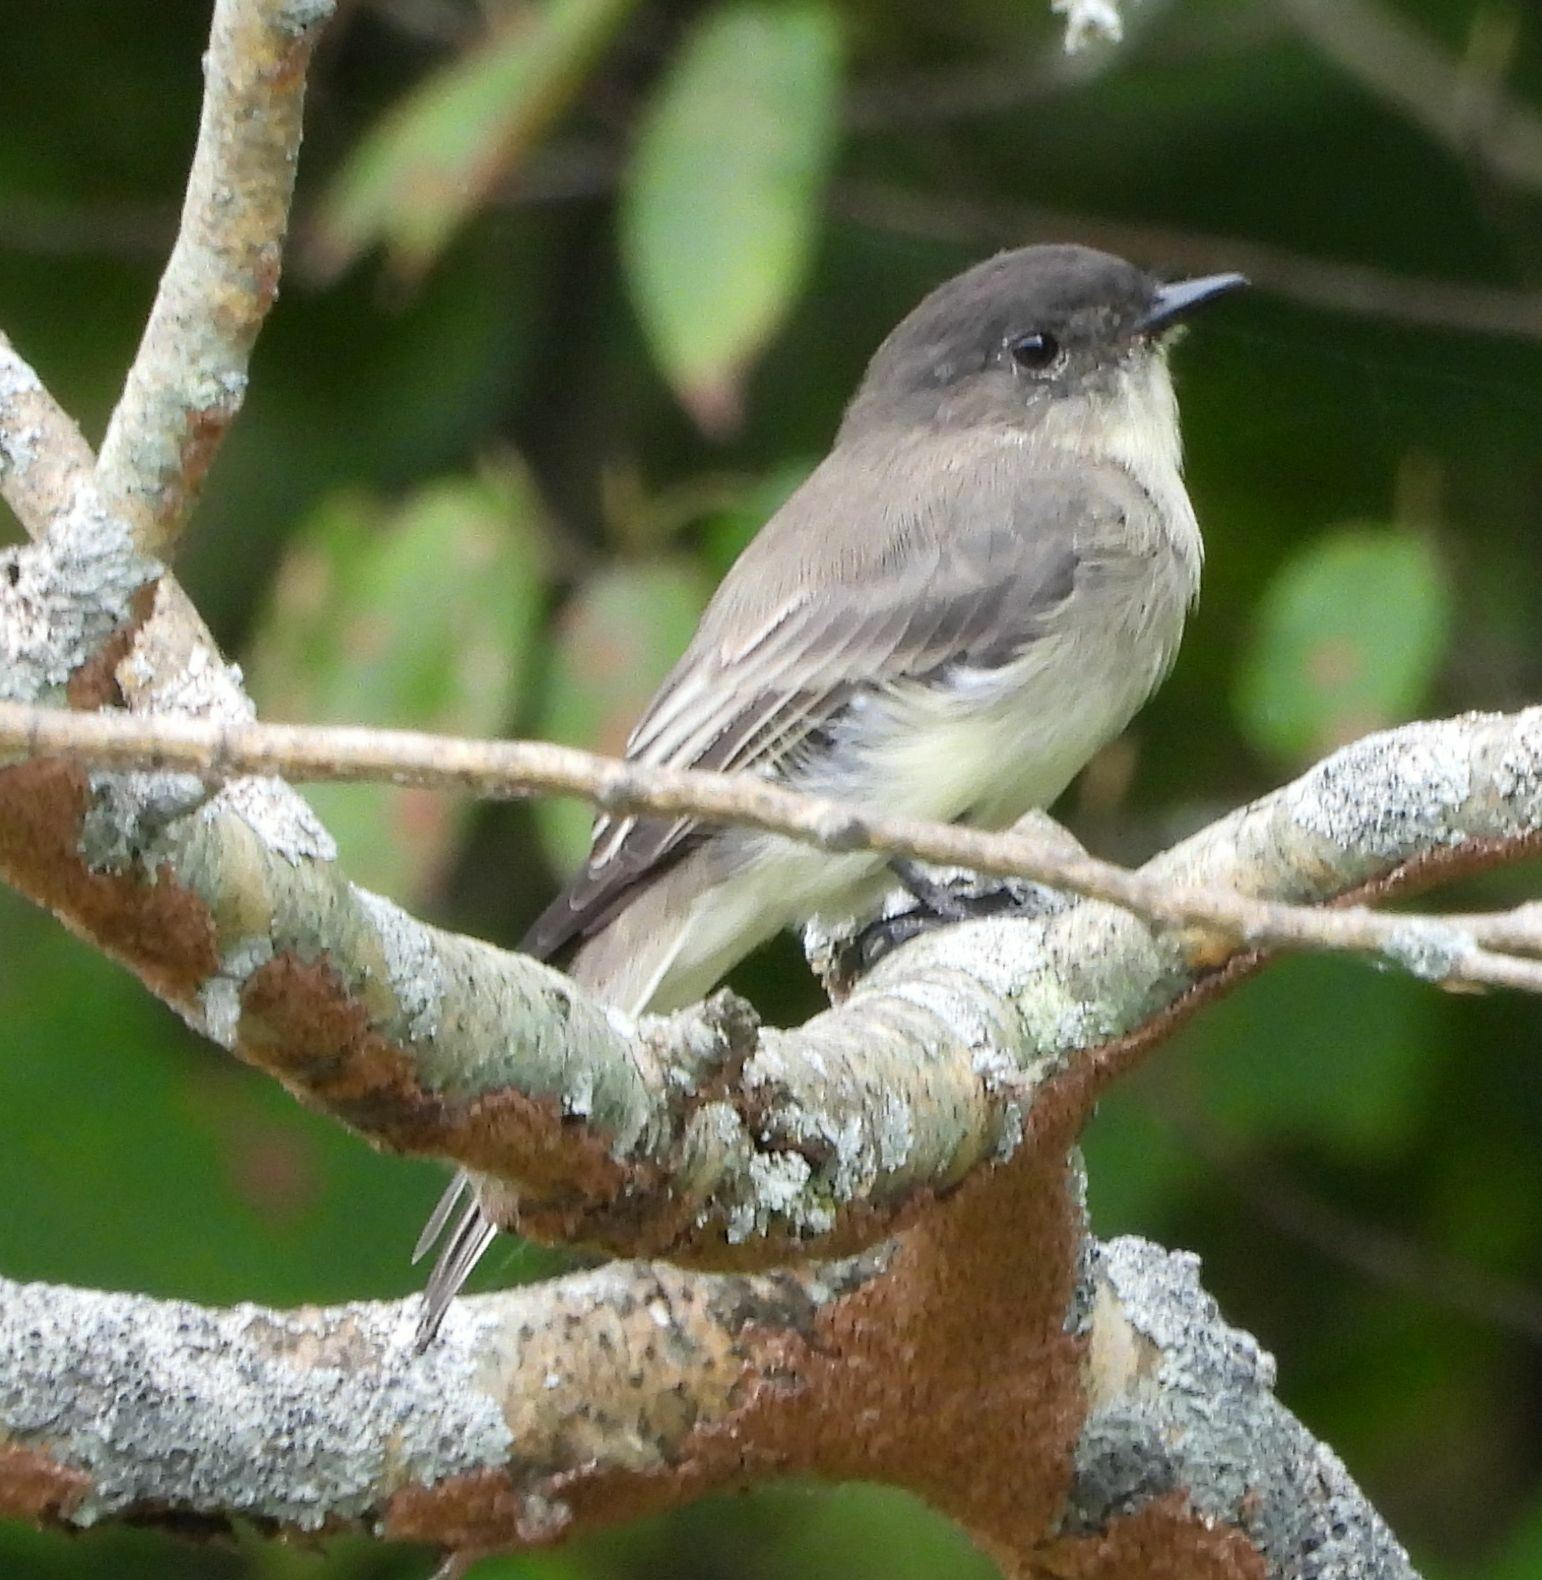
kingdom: Animalia
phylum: Chordata
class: Aves
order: Passeriformes
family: Tyrannidae
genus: Sayornis
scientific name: Sayornis phoebe
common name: Eastern phoebe
